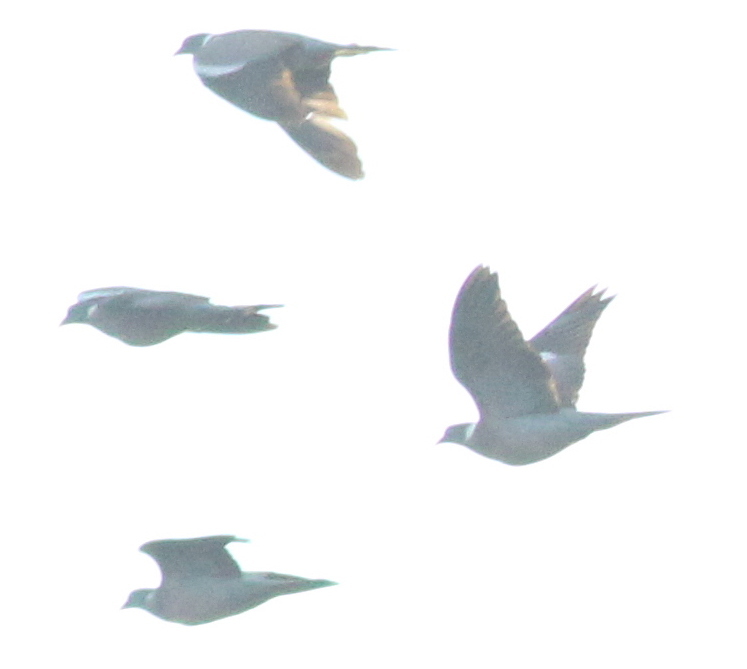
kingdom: Animalia
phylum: Chordata
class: Aves
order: Columbiformes
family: Columbidae
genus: Columba
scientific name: Columba palumbus
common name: Common wood pigeon
